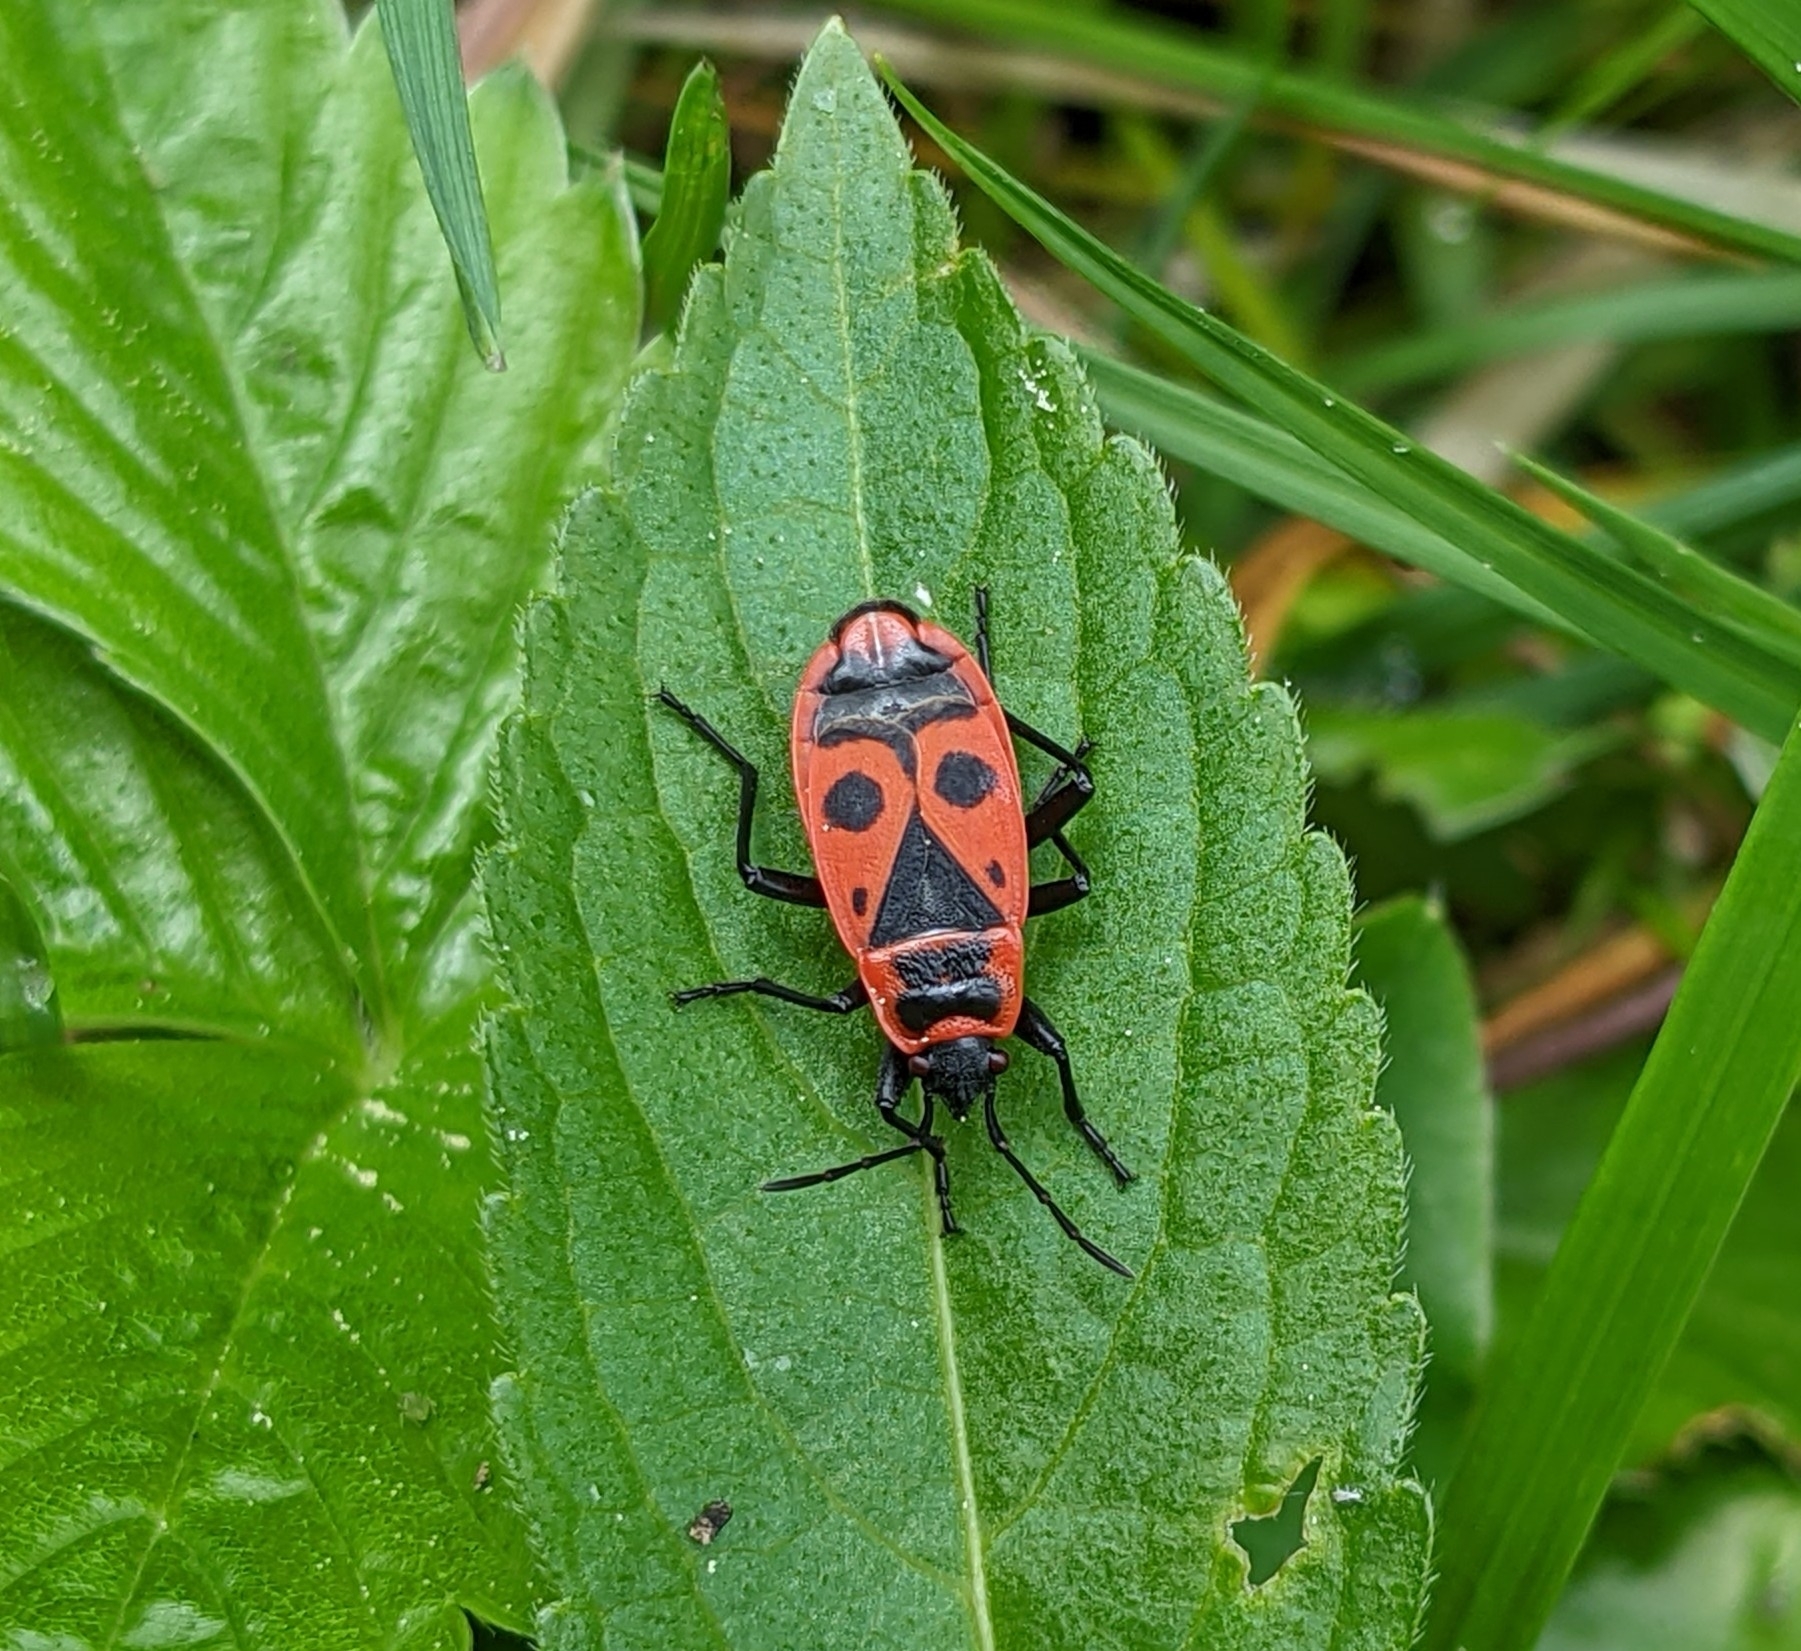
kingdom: Animalia
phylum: Arthropoda
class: Insecta
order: Hemiptera
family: Pyrrhocoridae
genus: Pyrrhocoris
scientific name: Pyrrhocoris apterus
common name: Firebug
